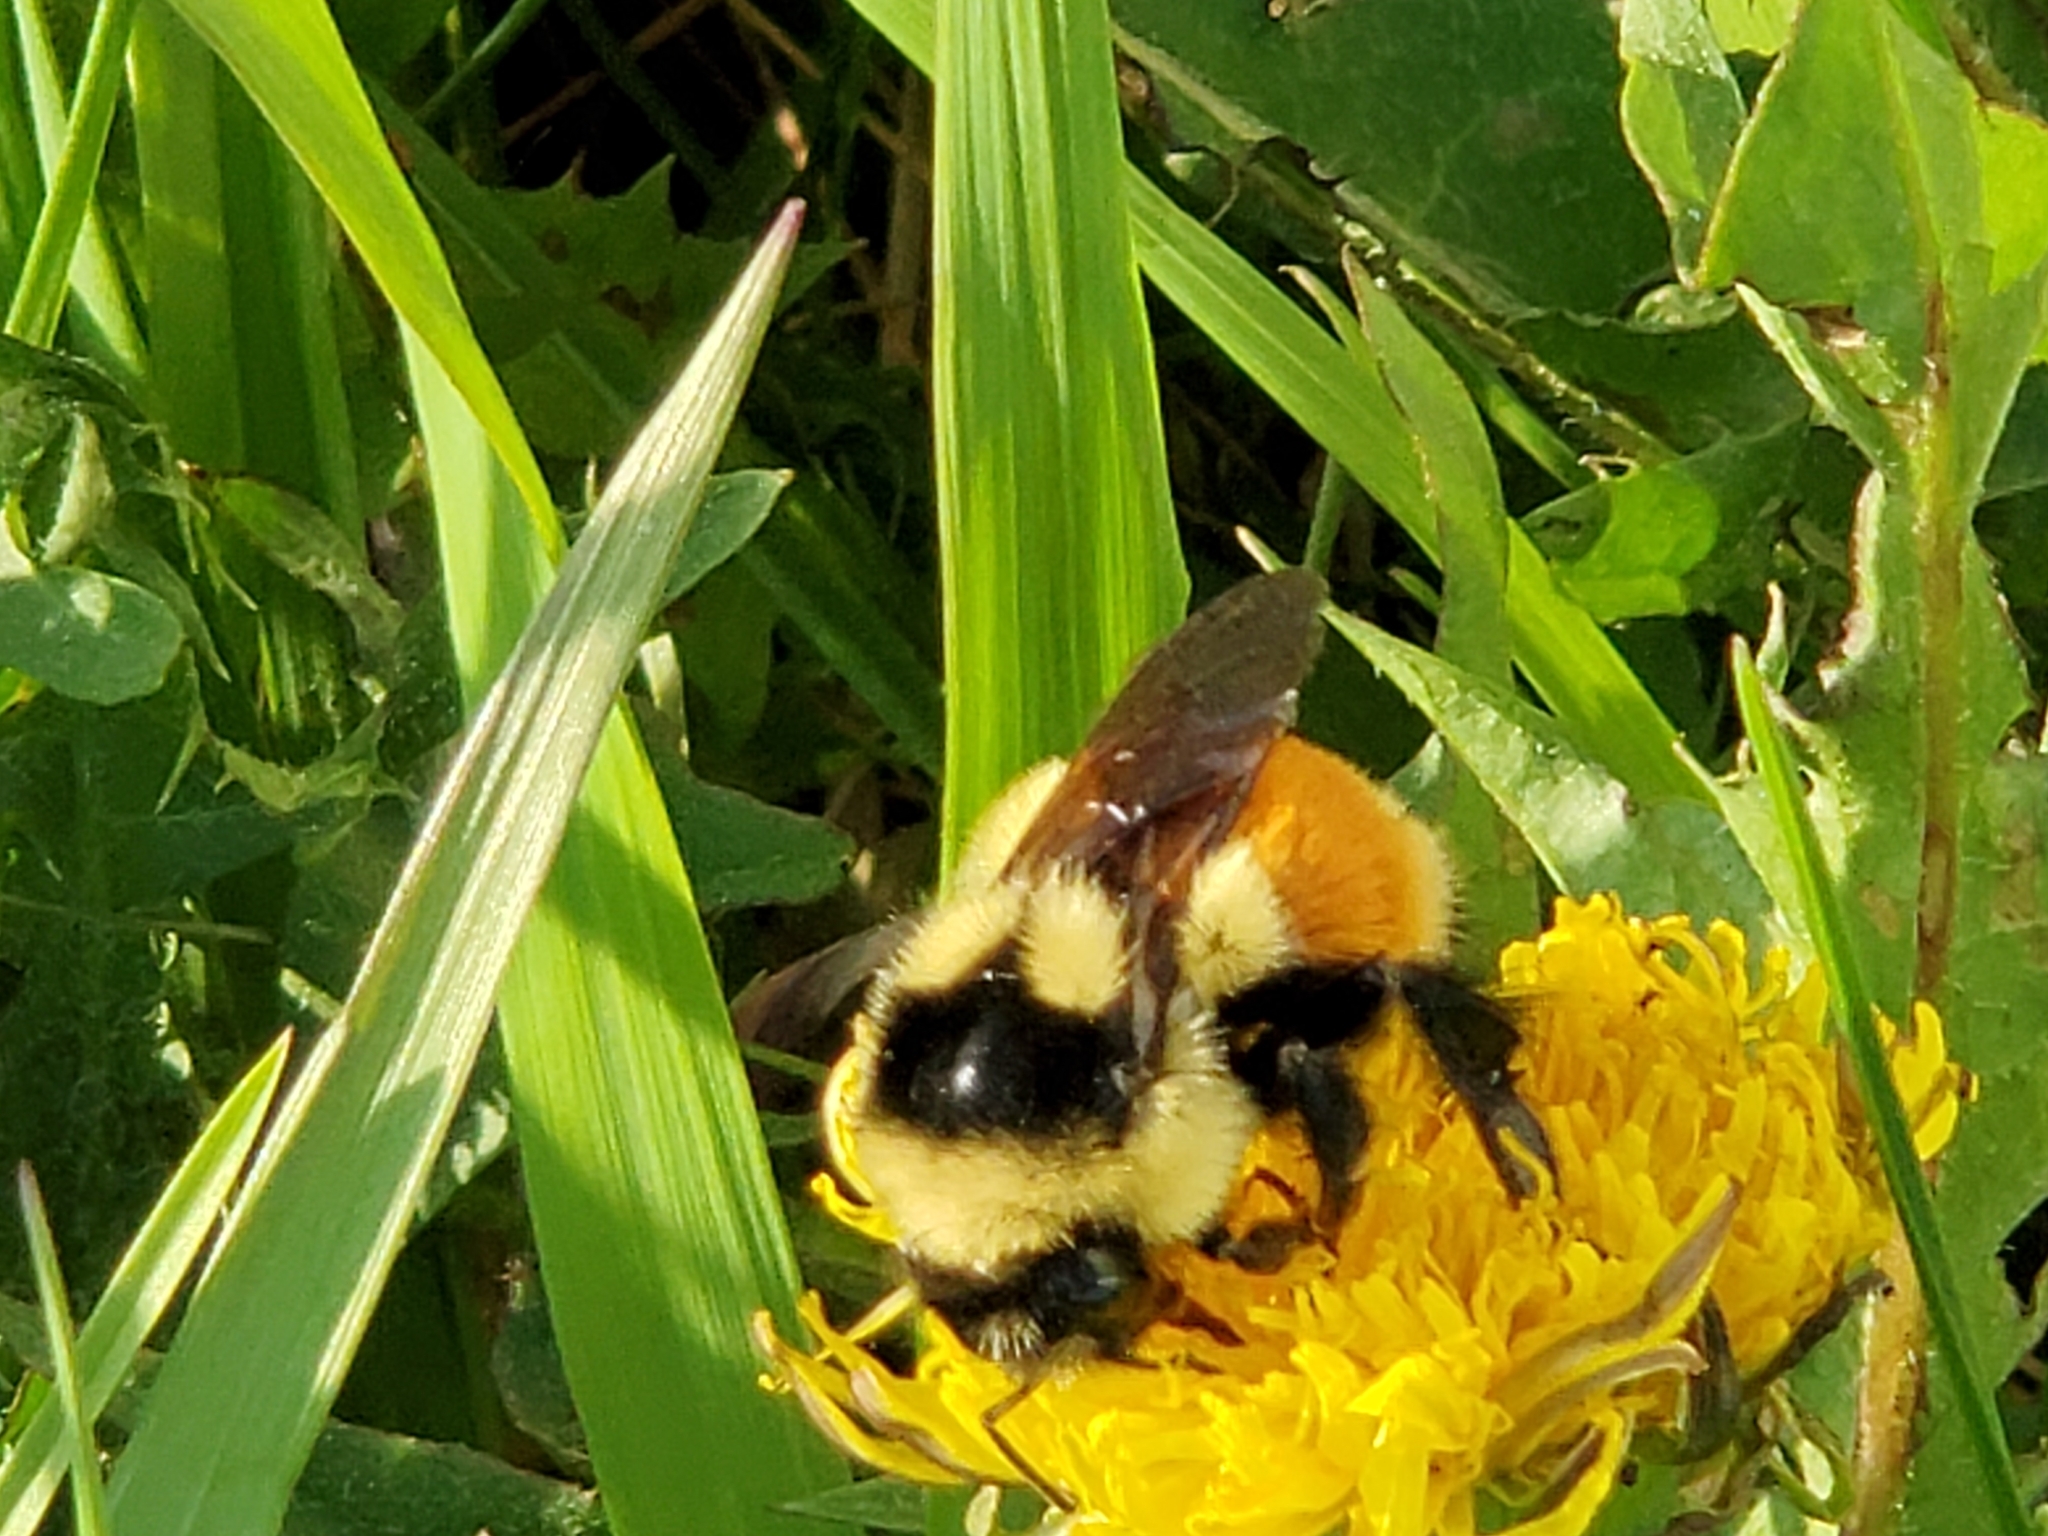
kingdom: Animalia
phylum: Arthropoda
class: Insecta
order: Hymenoptera
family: Apidae
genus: Bombus
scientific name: Bombus ternarius
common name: Tri-colored bumble bee
